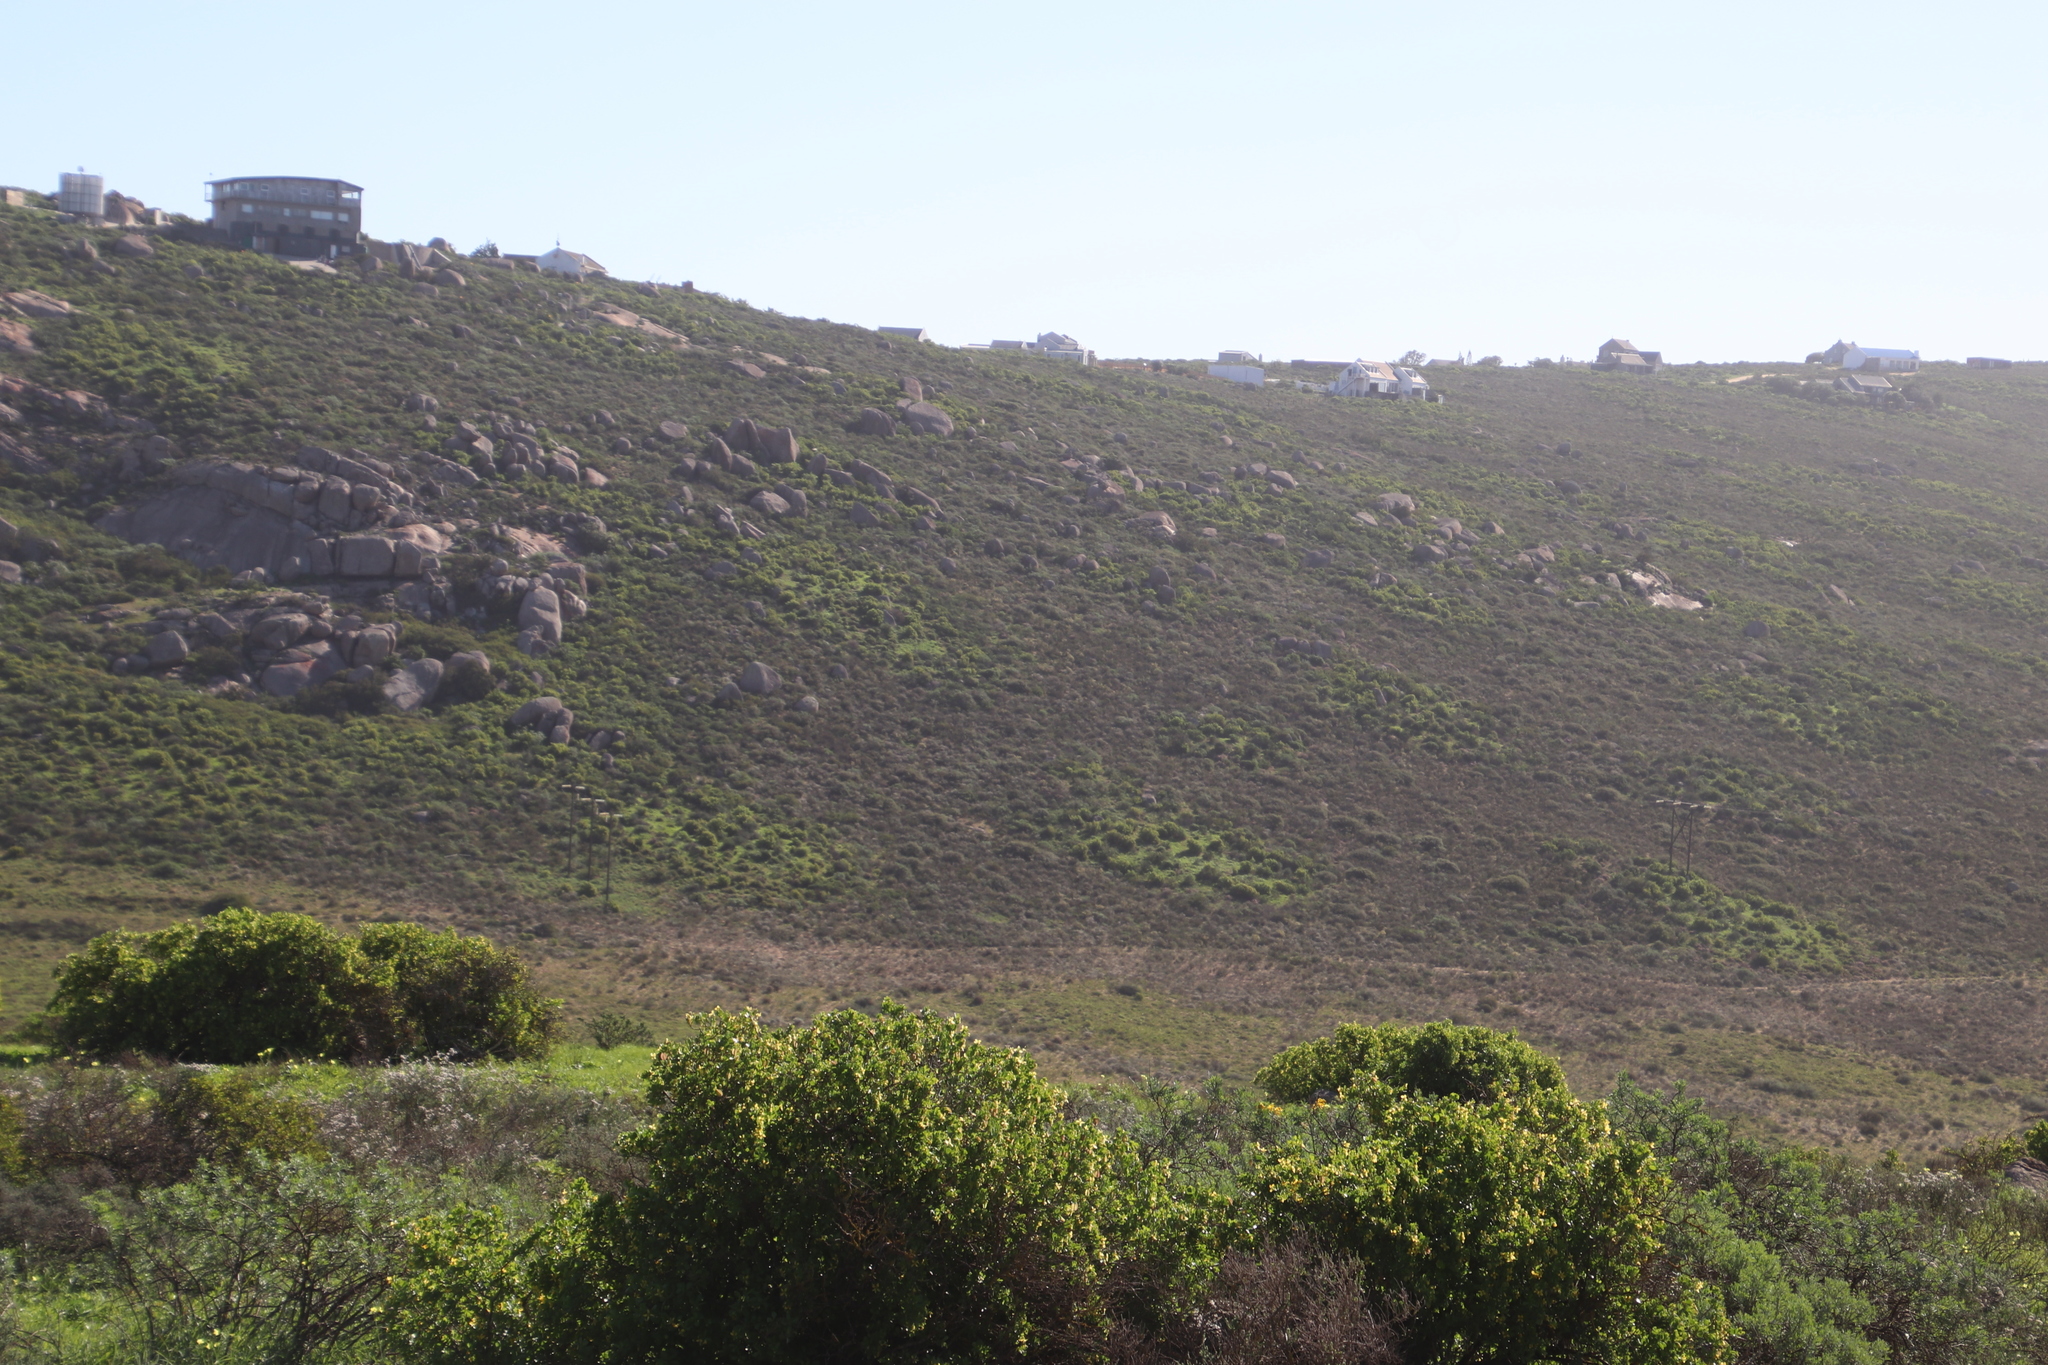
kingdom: Animalia
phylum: Arthropoda
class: Insecta
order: Blattodea
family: Hodotermitidae
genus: Microhodotermes
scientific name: Microhodotermes viator
